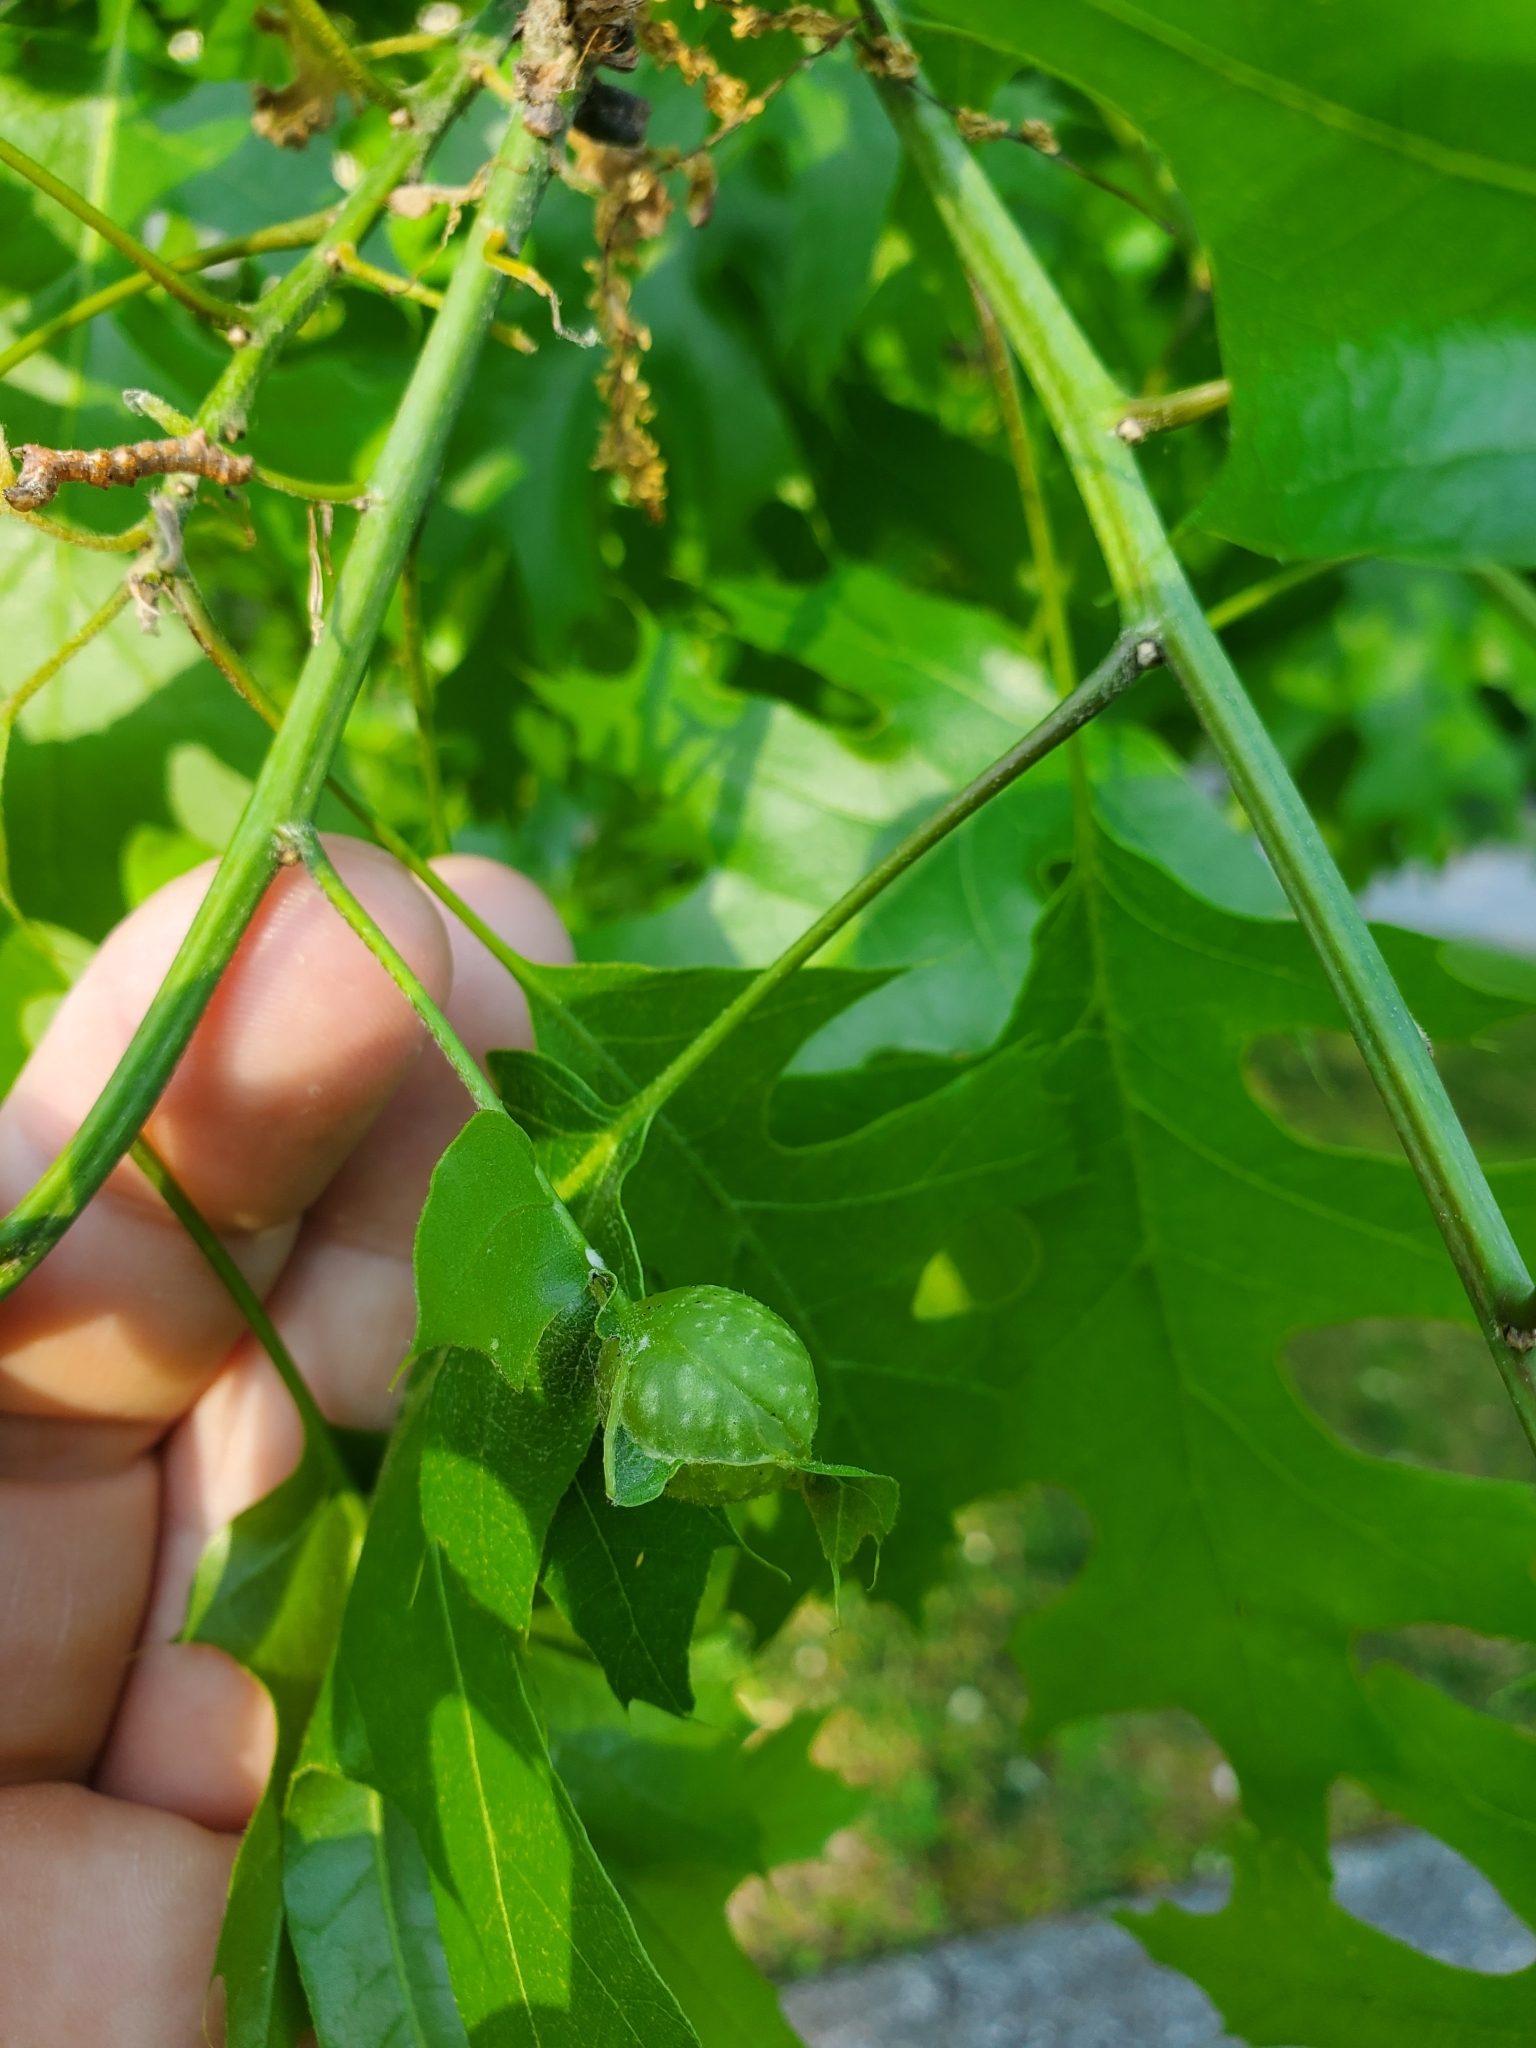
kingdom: Animalia
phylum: Arthropoda
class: Insecta
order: Hymenoptera
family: Cynipidae
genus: Dryocosmus
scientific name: Dryocosmus quercuspalustris
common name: Succulent oak gall wasp
